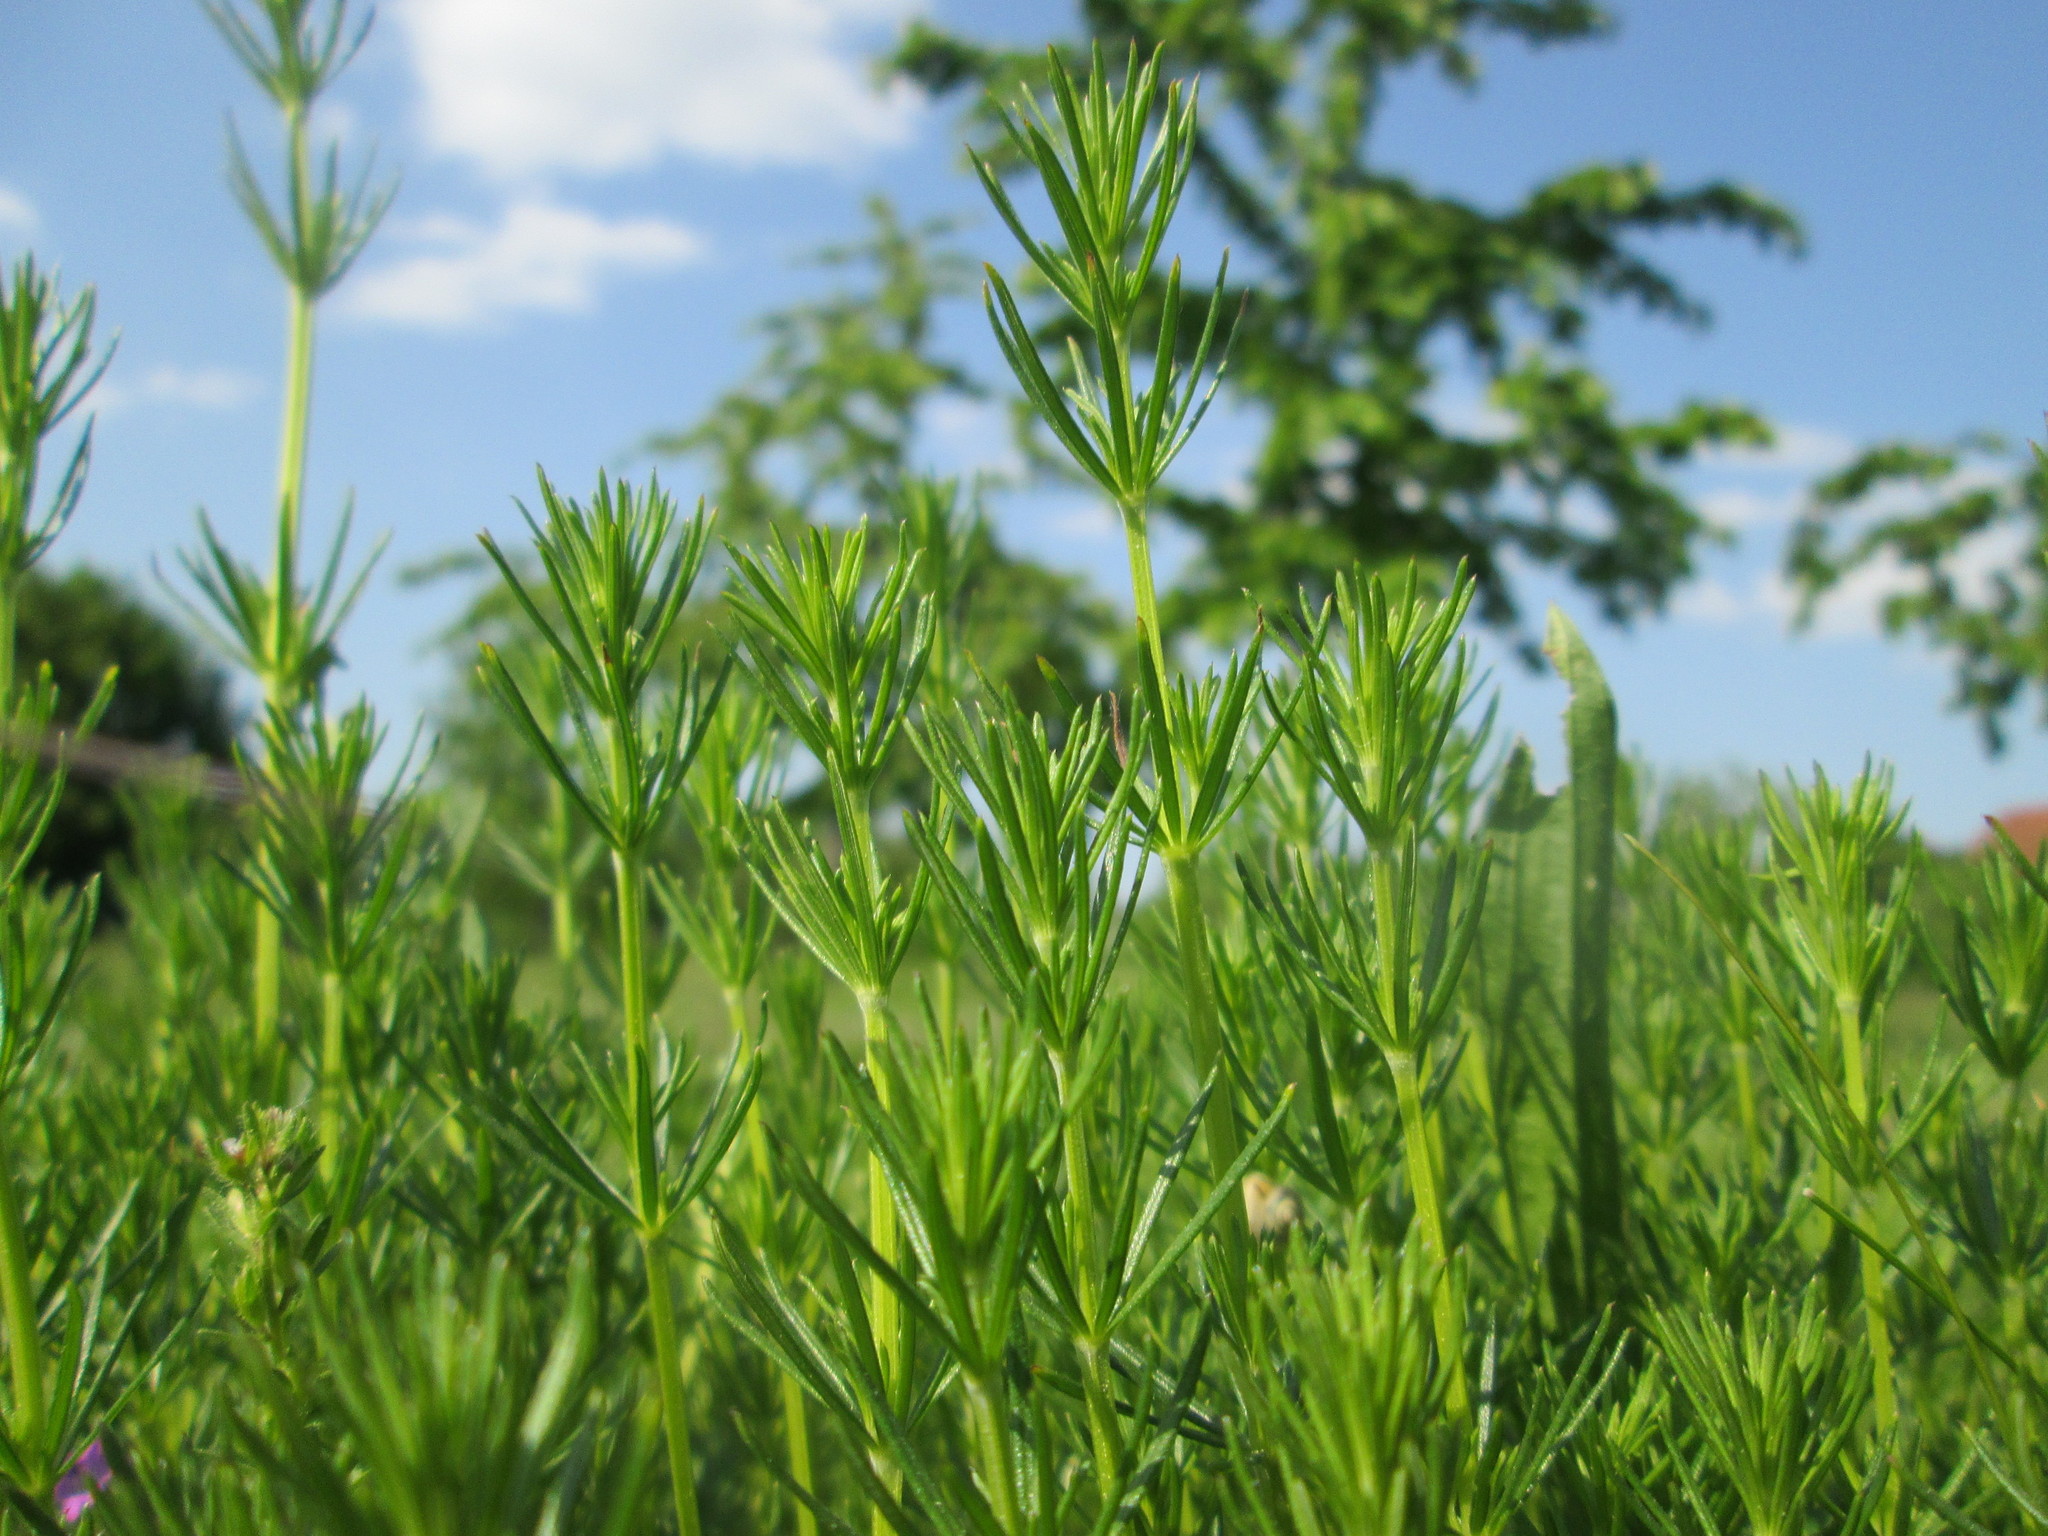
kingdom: Plantae
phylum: Tracheophyta
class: Magnoliopsida
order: Gentianales
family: Rubiaceae
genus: Galium
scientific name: Galium verum
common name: Lady's bedstraw
